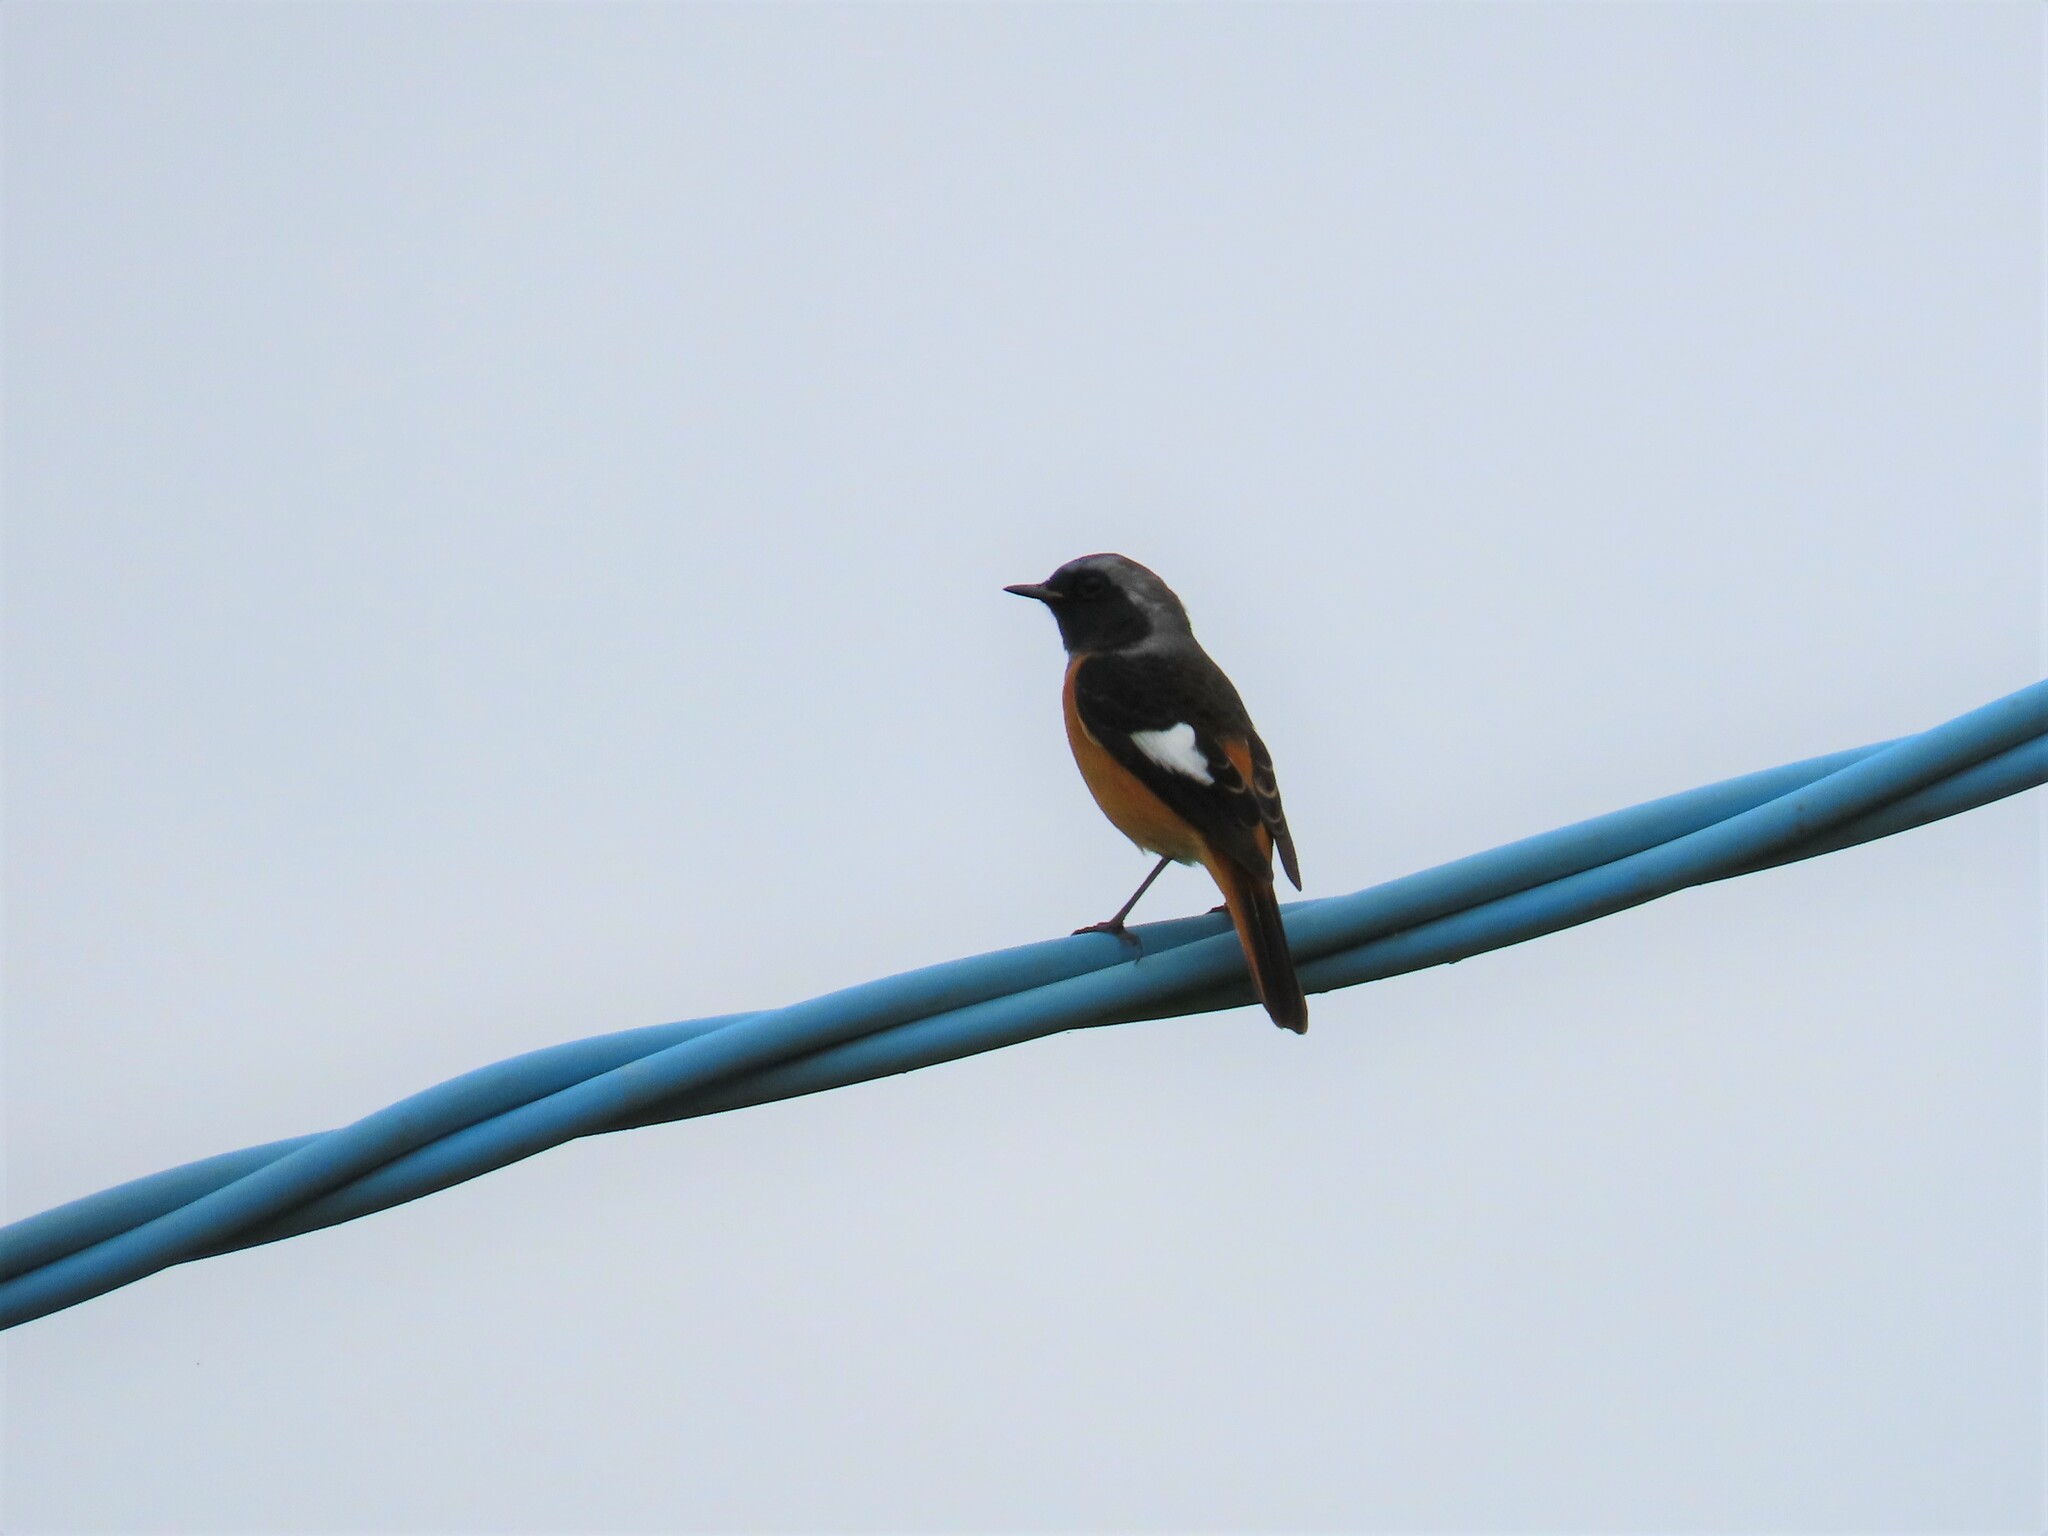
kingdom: Animalia
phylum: Chordata
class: Aves
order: Passeriformes
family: Muscicapidae
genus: Phoenicurus
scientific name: Phoenicurus auroreus
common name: Daurian redstart
